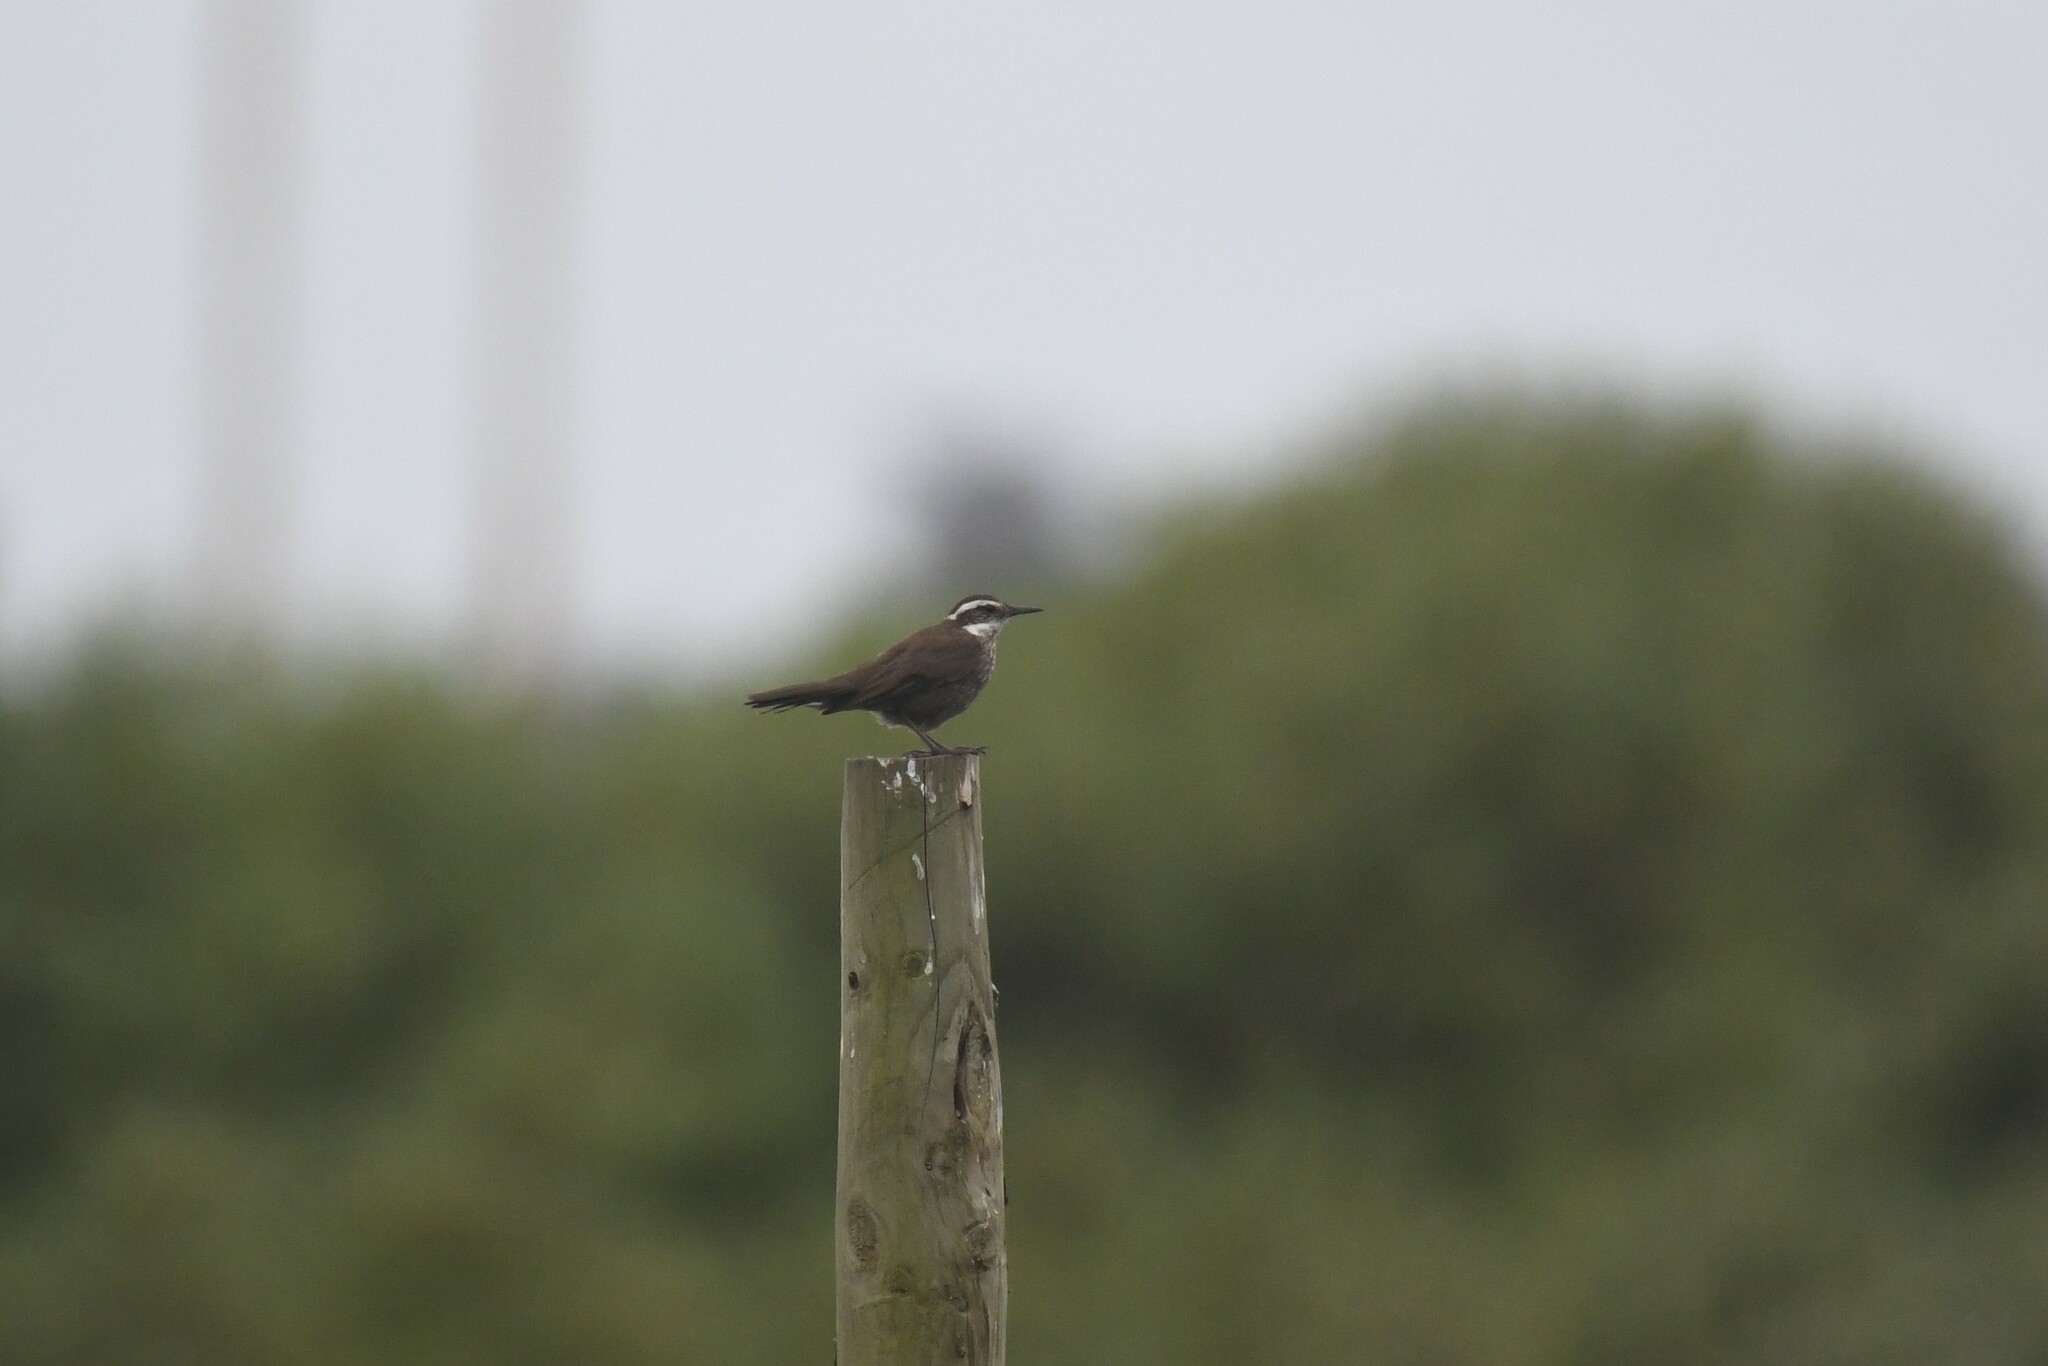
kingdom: Animalia
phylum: Chordata
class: Aves
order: Passeriformes
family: Furnariidae
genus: Cinclodes
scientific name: Cinclodes patagonicus
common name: Dark-bellied cinclodes
